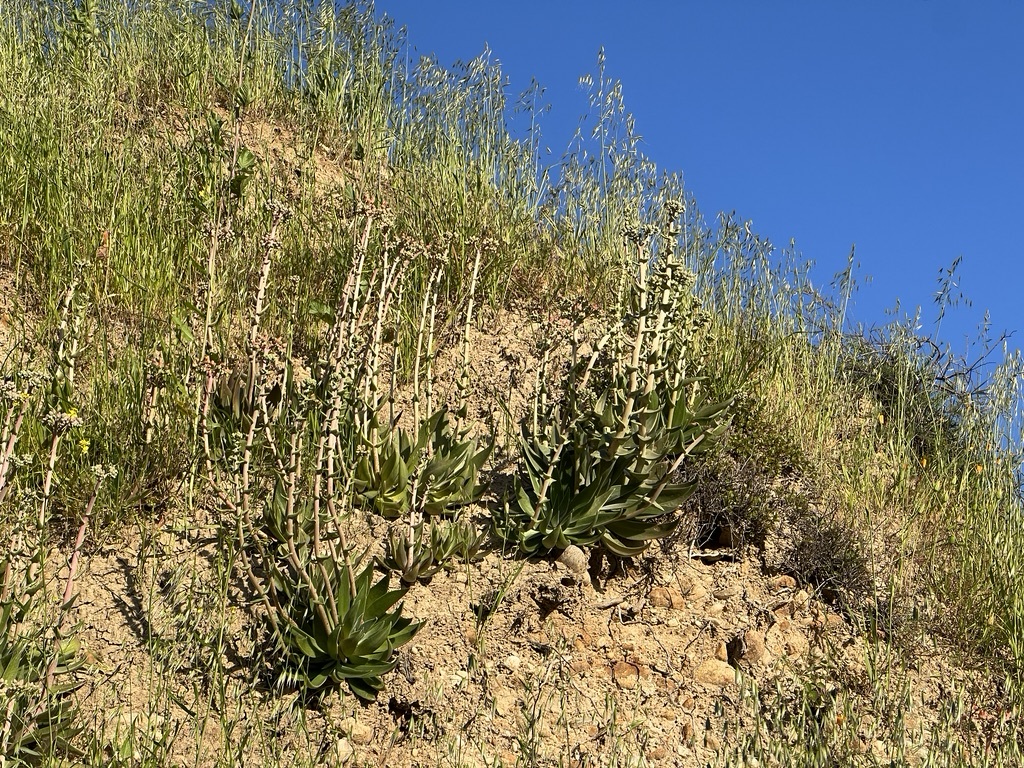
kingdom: Plantae
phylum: Tracheophyta
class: Magnoliopsida
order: Saxifragales
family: Crassulaceae
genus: Dudleya
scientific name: Dudleya lanceolata
